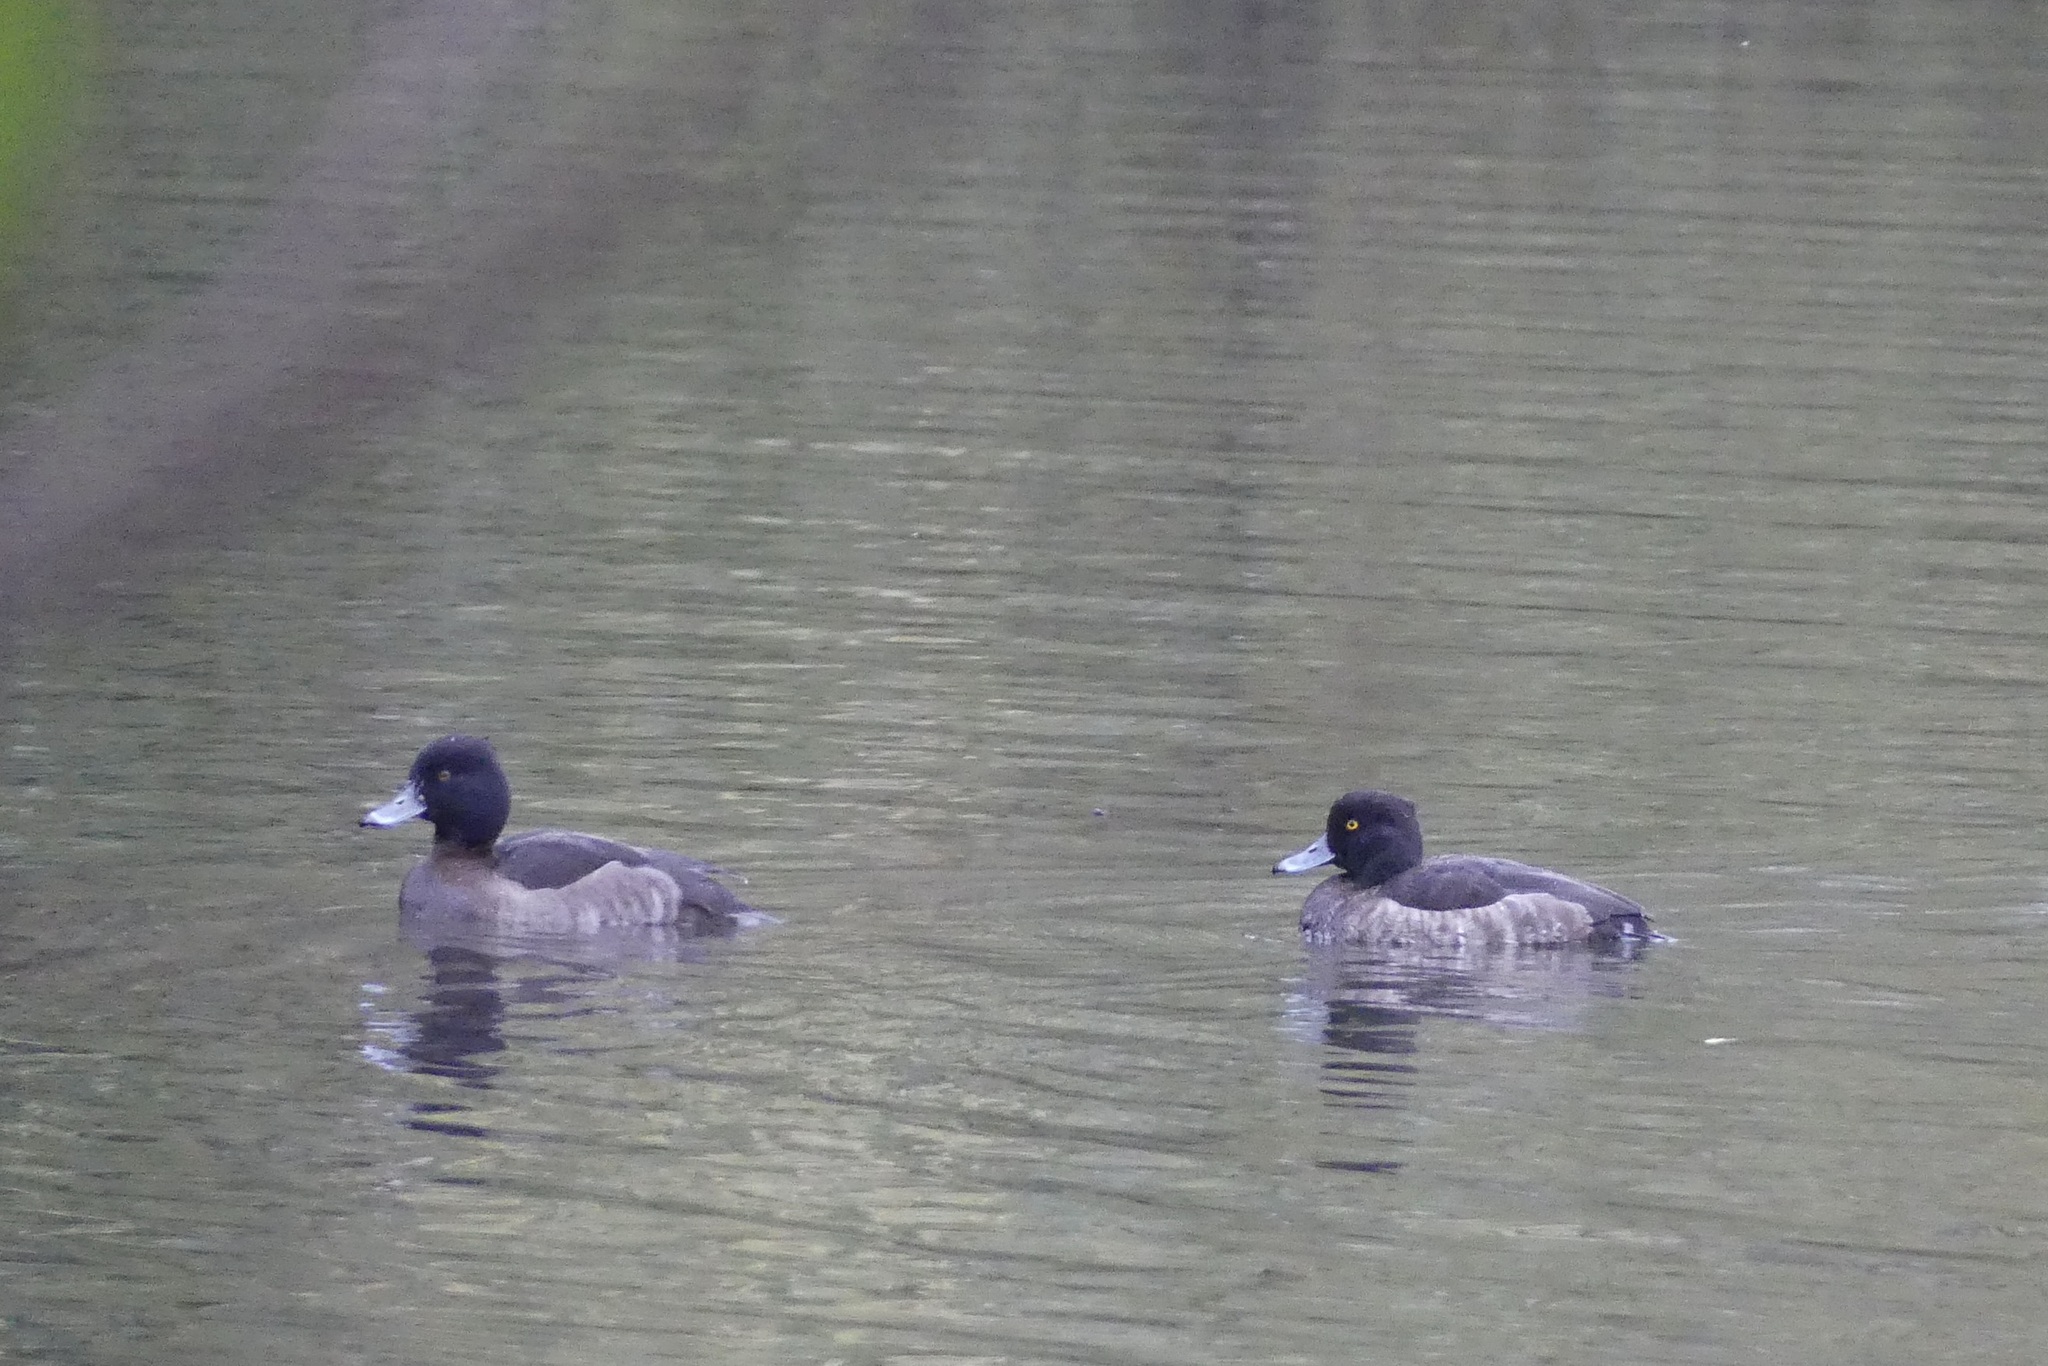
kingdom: Animalia
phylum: Chordata
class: Aves
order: Anseriformes
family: Anatidae
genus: Aythya
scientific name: Aythya fuligula
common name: Tufted duck
